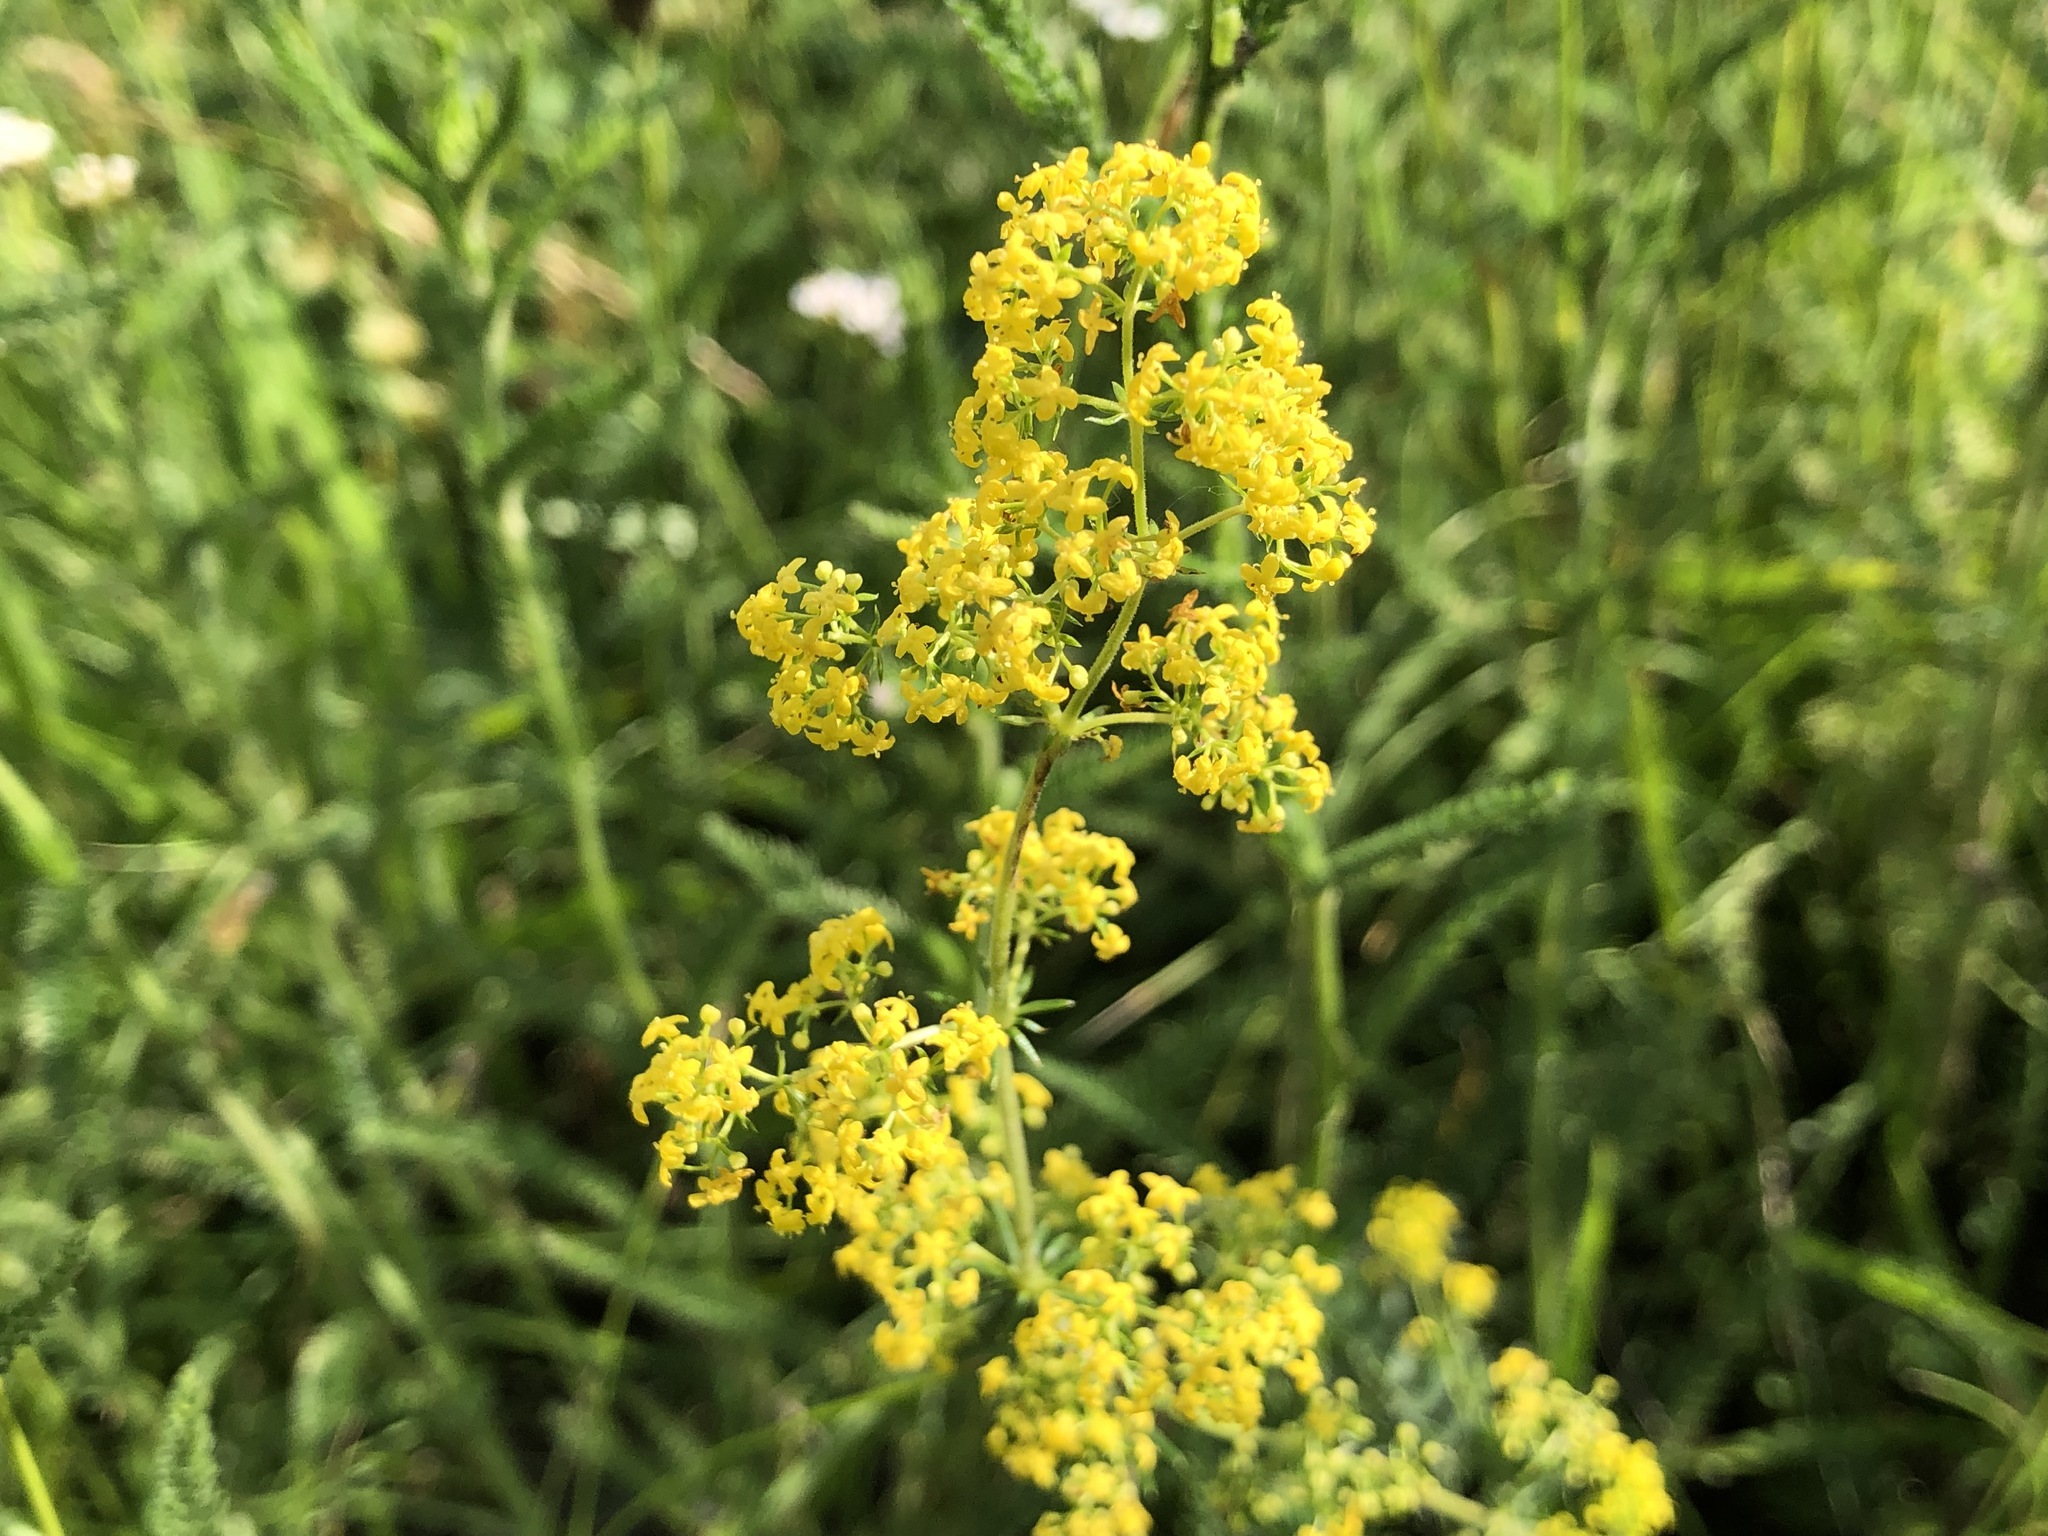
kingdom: Plantae
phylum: Tracheophyta
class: Magnoliopsida
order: Gentianales
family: Rubiaceae
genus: Galium
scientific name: Galium verum
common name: Lady's bedstraw
